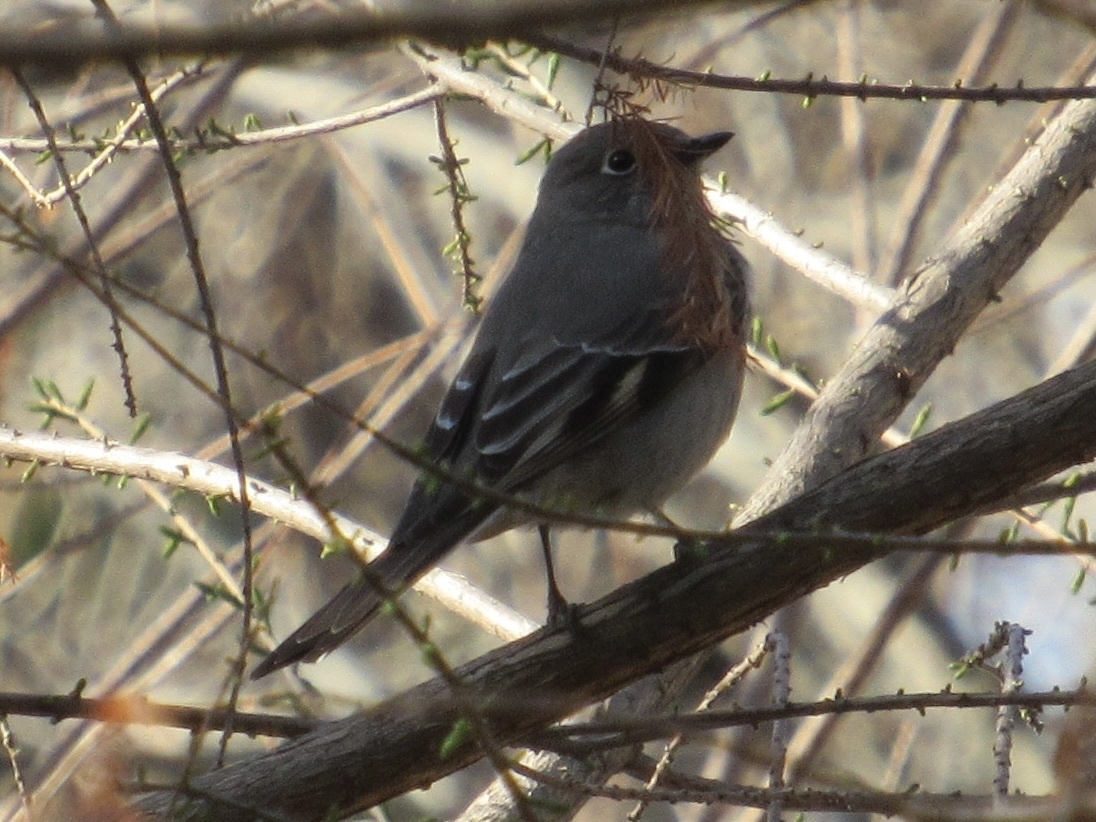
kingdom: Animalia
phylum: Chordata
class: Aves
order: Passeriformes
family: Turdidae
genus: Myadestes
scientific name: Myadestes townsendi
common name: Townsend's solitaire
